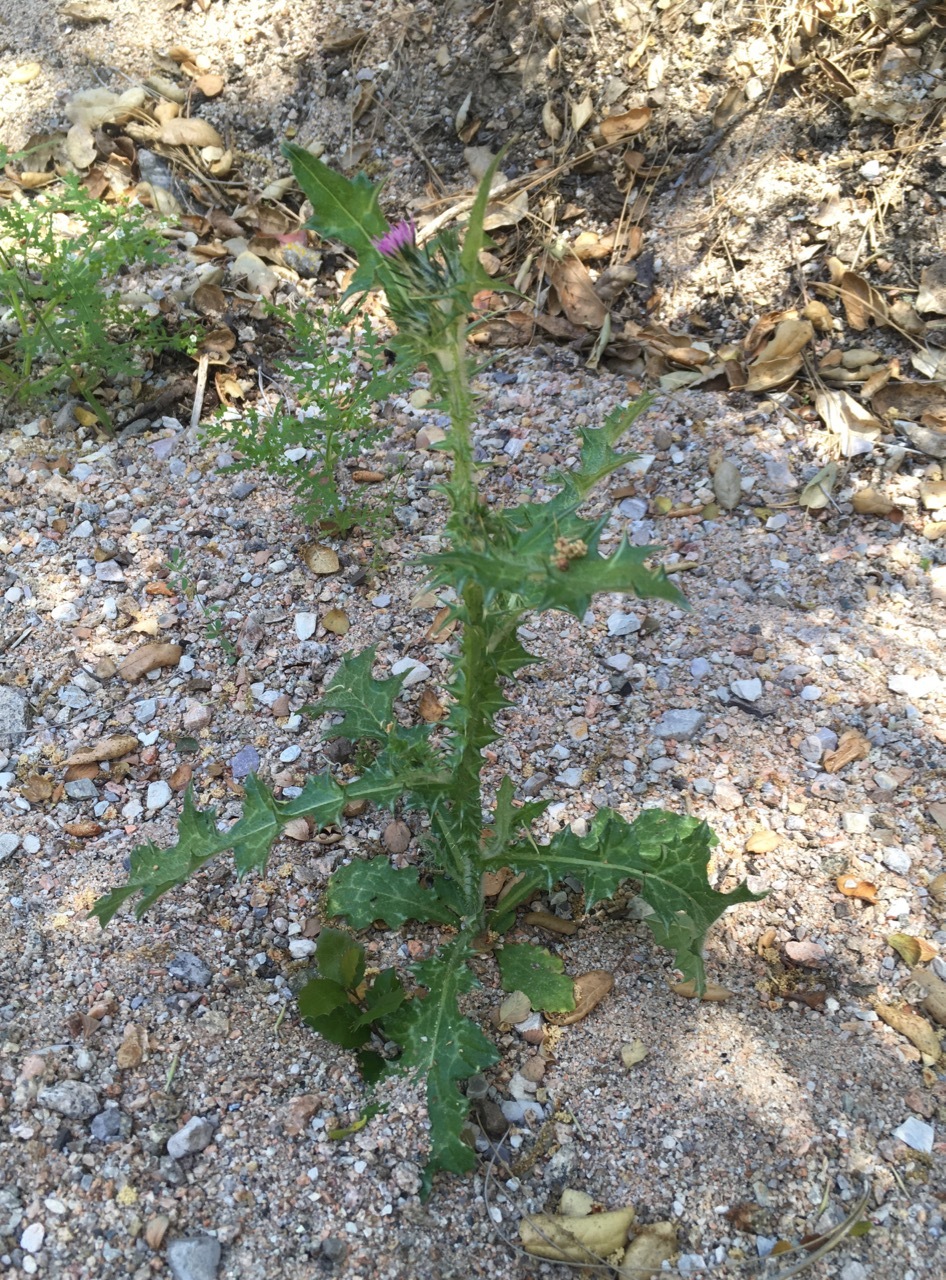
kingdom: Plantae
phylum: Tracheophyta
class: Magnoliopsida
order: Asterales
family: Asteraceae
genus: Carduus
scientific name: Carduus pycnocephalus
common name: Plymouth thistle
